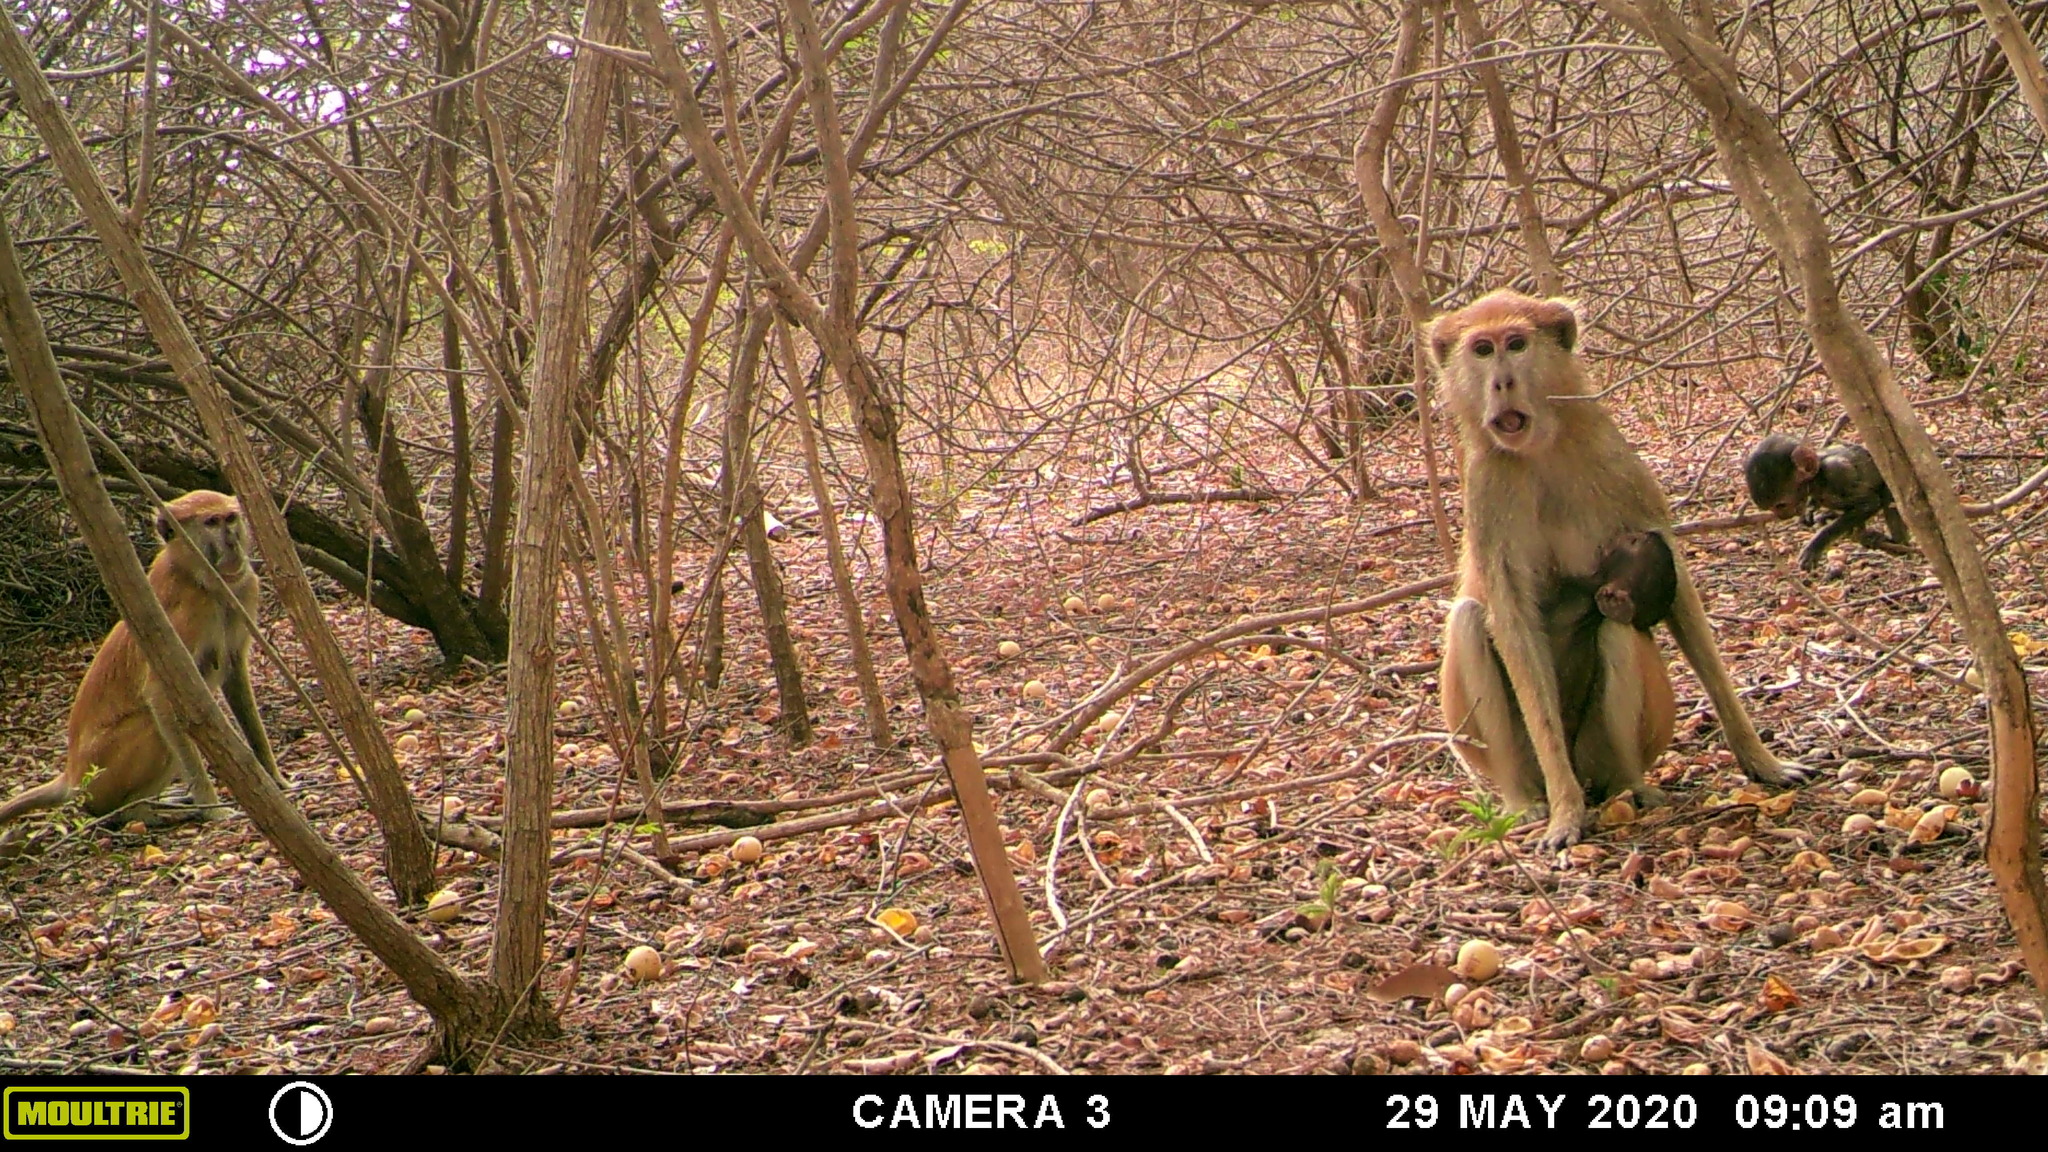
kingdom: Animalia
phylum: Chordata
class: Mammalia
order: Primates
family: Cercopithecidae
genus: Erythrocebus
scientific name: Erythrocebus patas
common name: Patas monkey
